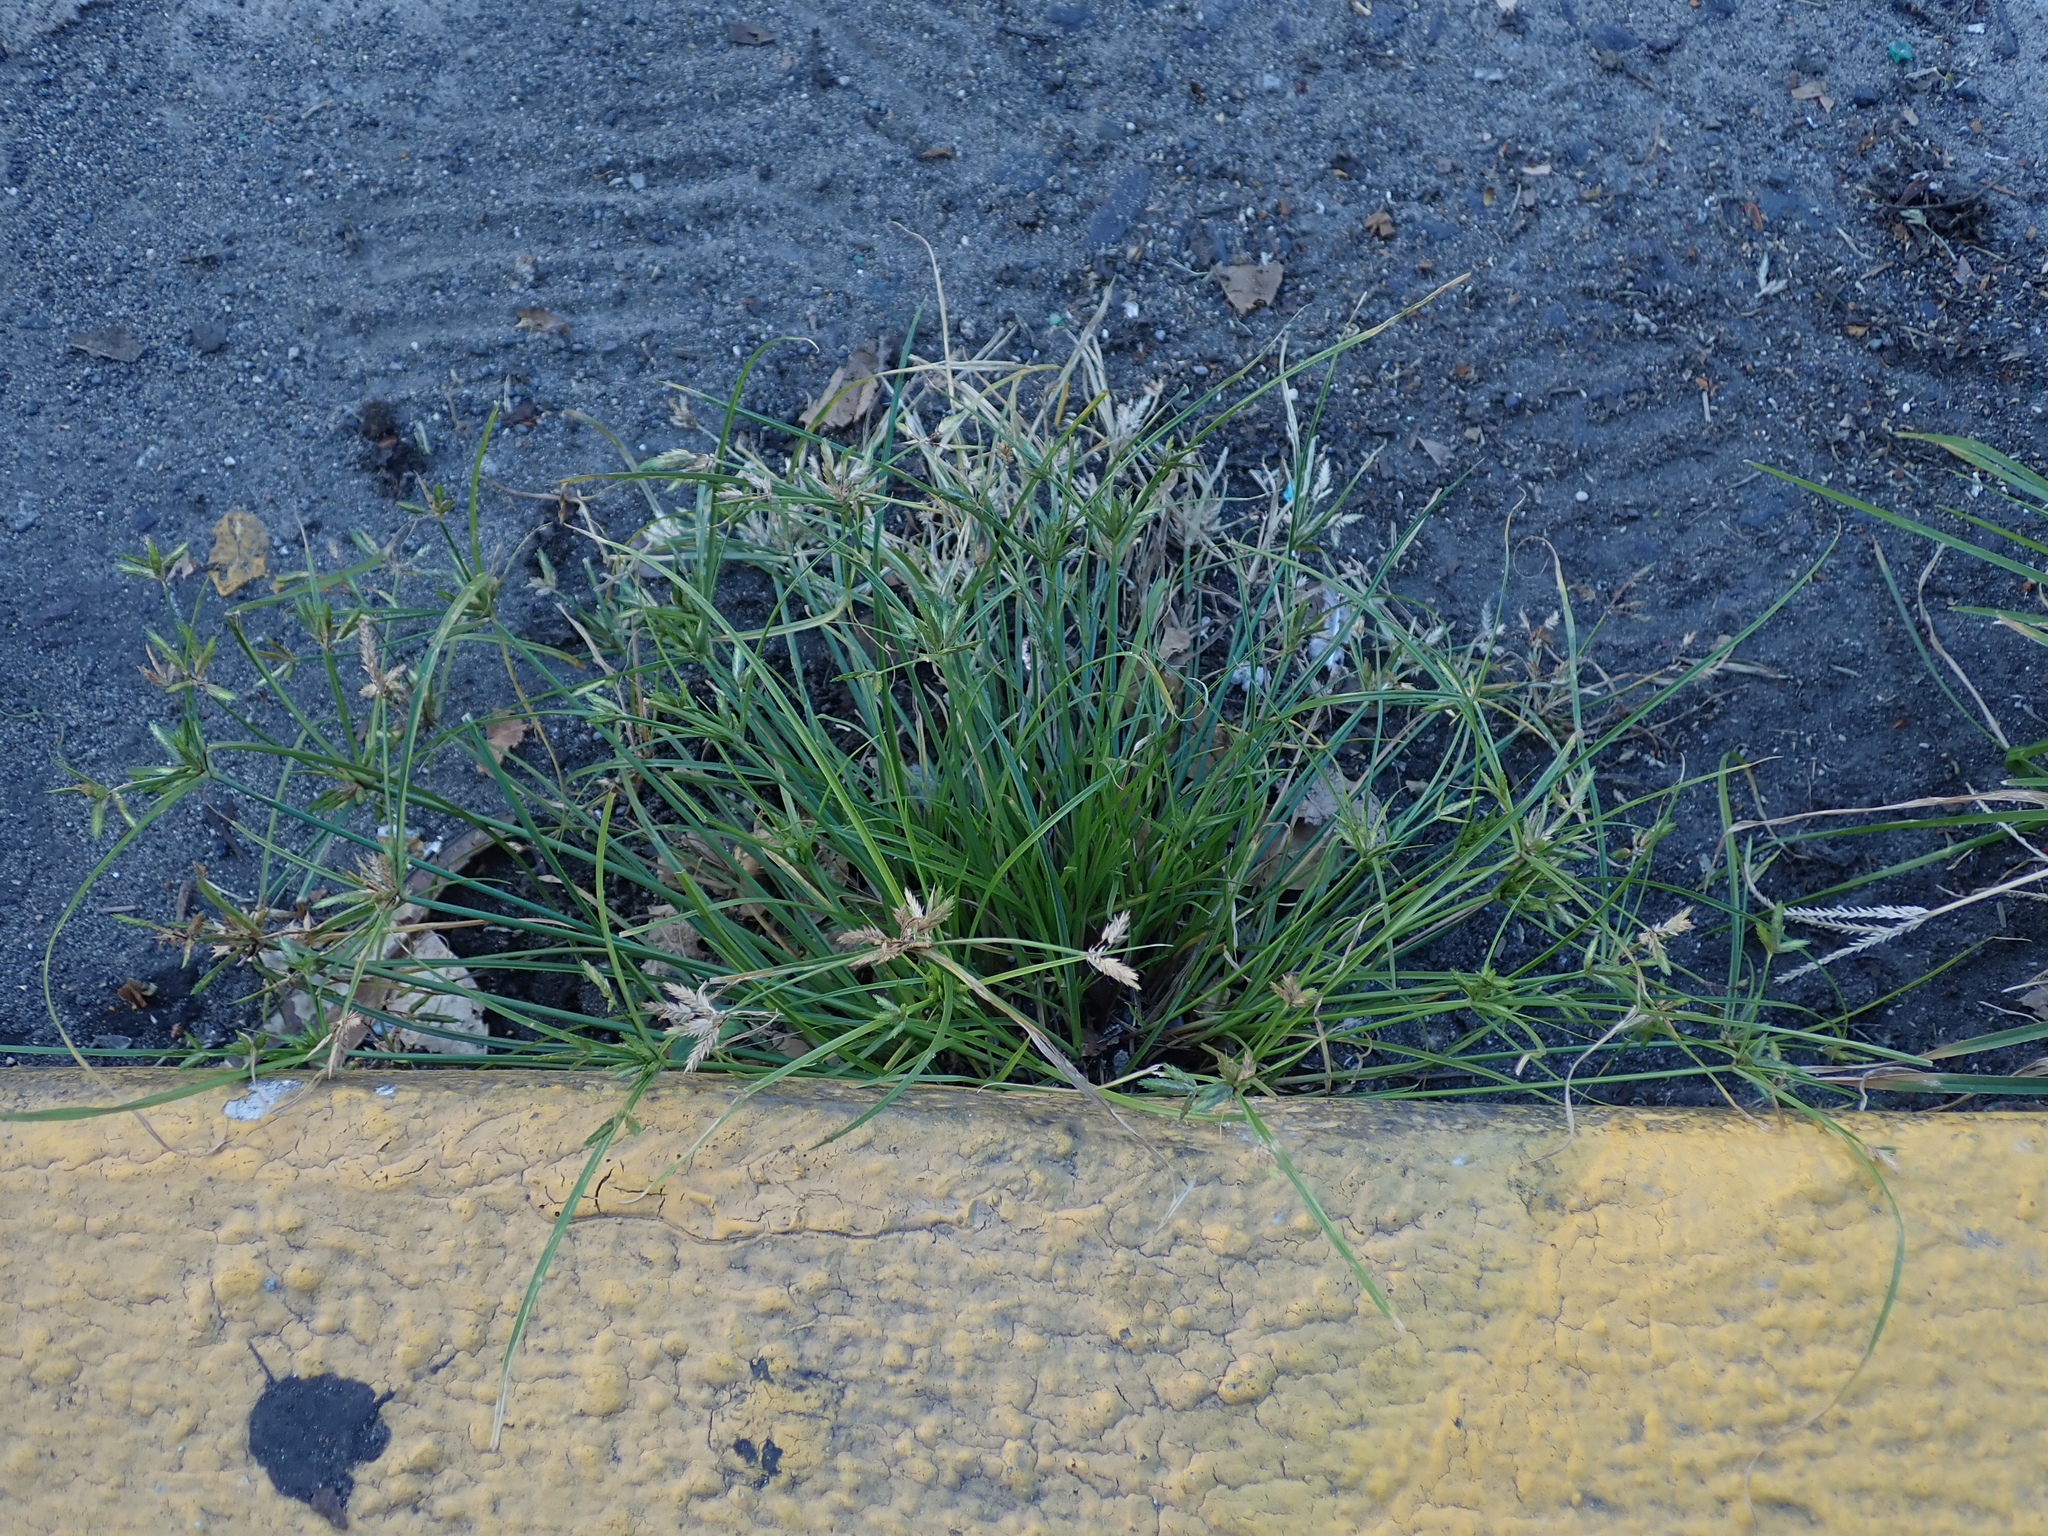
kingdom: Plantae
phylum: Tracheophyta
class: Liliopsida
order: Poales
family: Cyperaceae
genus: Cyperus
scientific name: Cyperus compressus
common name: Poorland flatsedge
